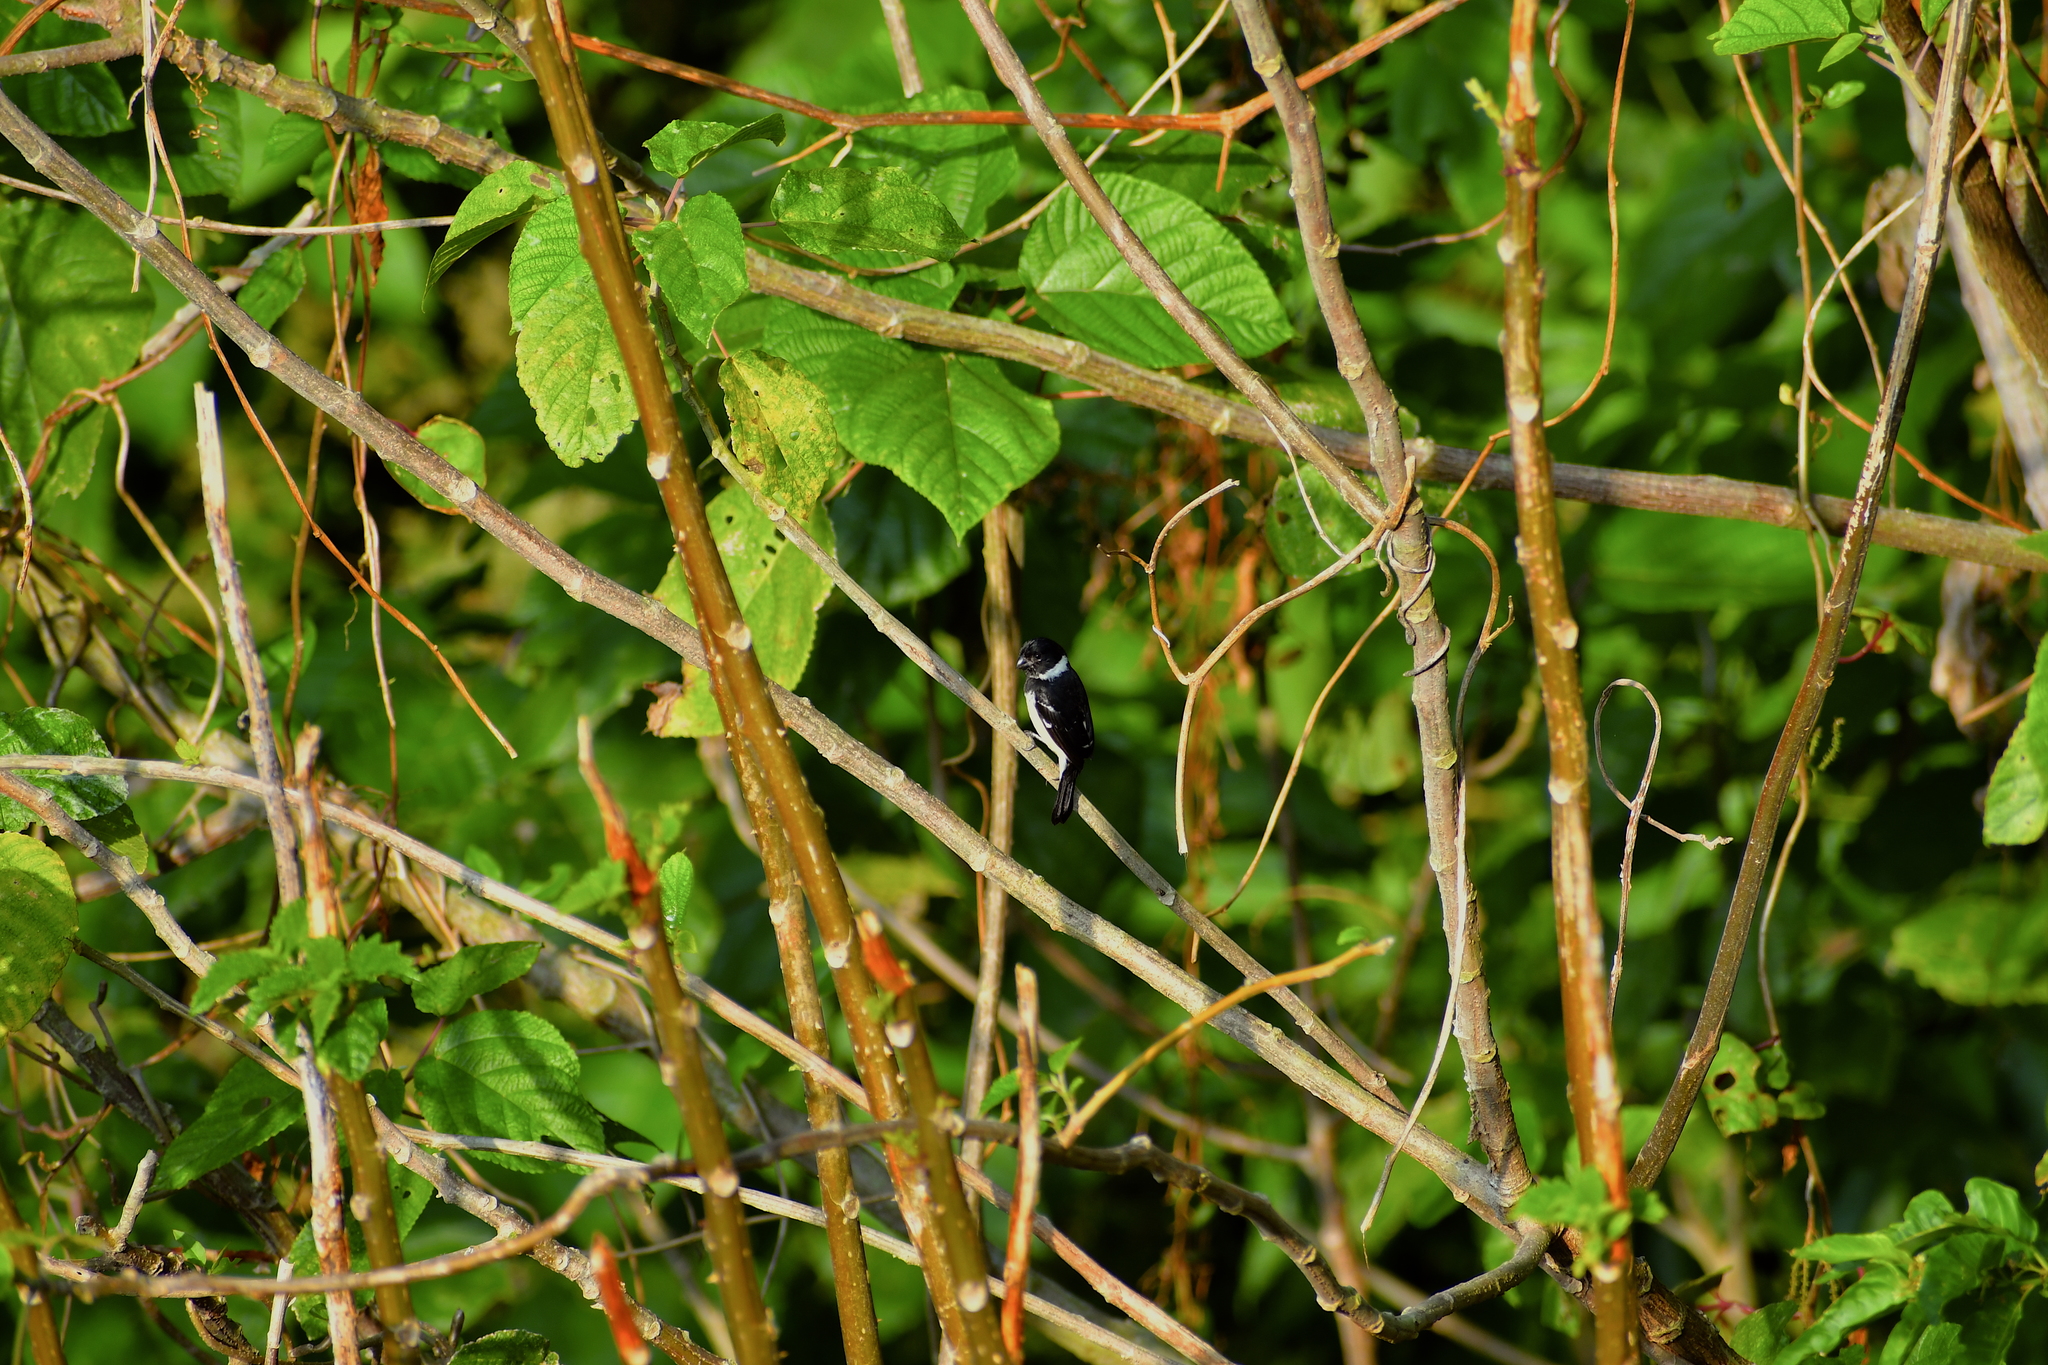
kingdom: Animalia
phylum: Chordata
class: Aves
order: Passeriformes
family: Thraupidae
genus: Sporophila
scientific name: Sporophila morelleti
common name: Morelet's seedeater
